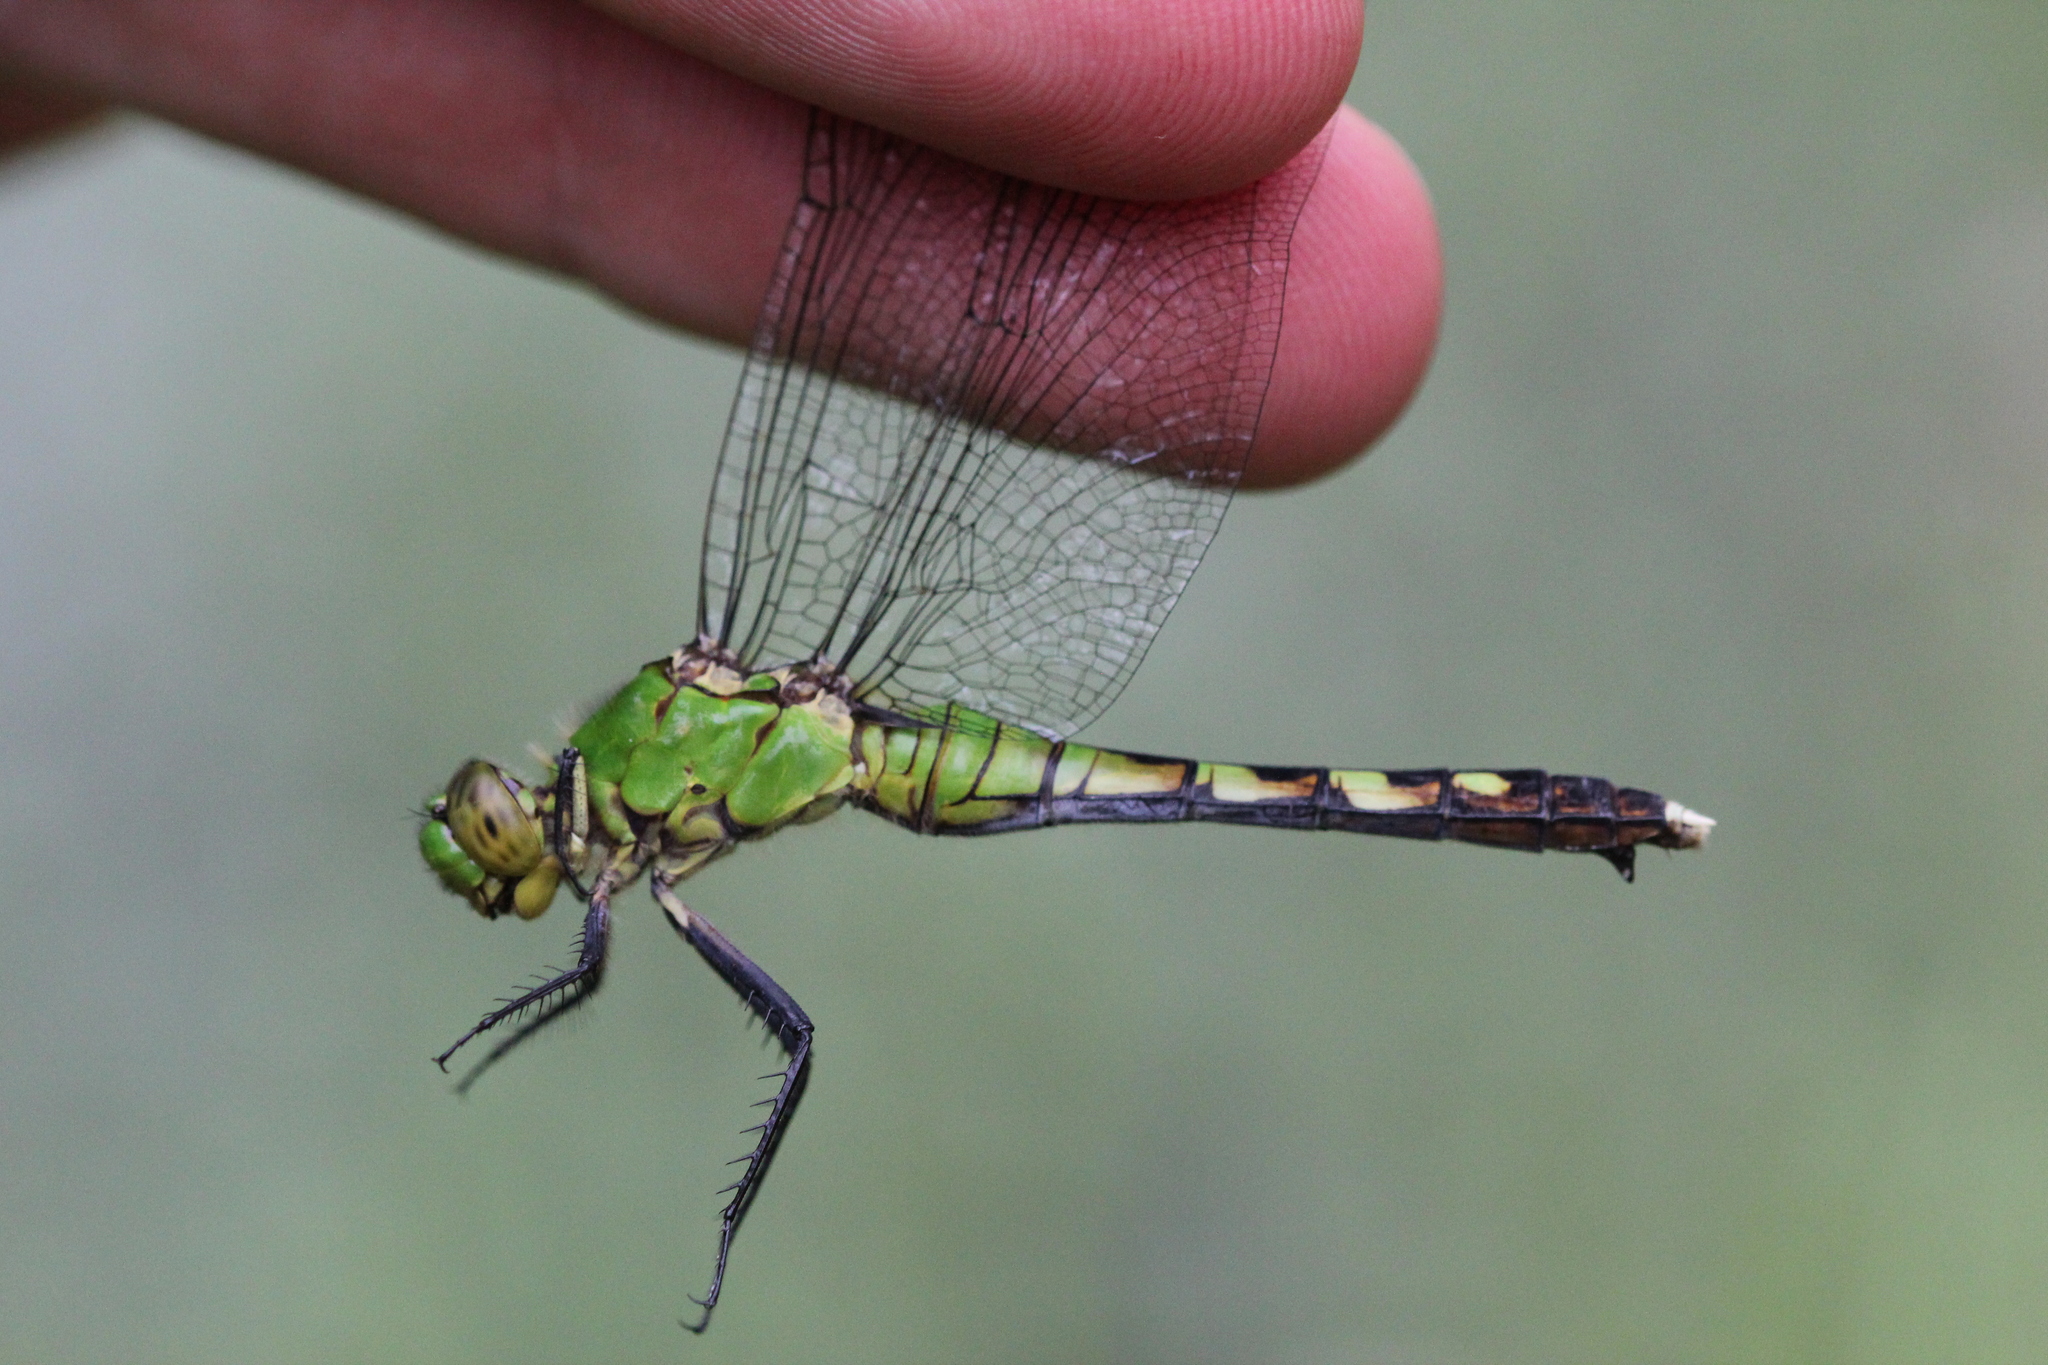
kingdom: Animalia
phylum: Arthropoda
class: Insecta
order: Odonata
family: Libellulidae
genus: Erythemis
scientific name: Erythemis simplicicollis
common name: Eastern pondhawk
